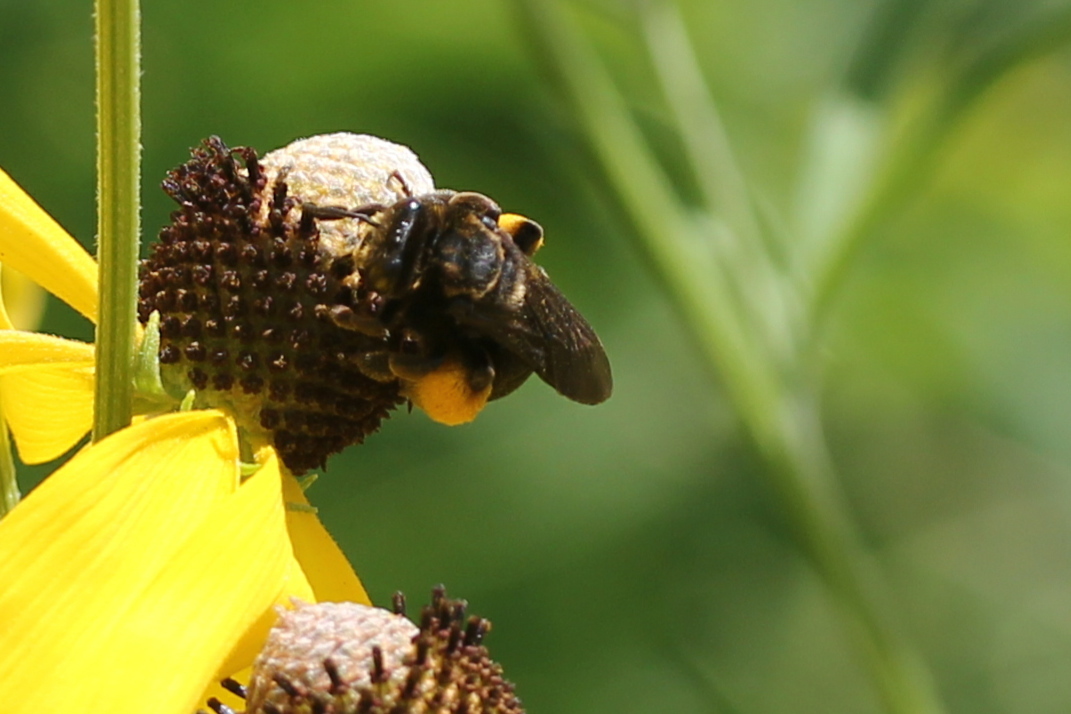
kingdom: Animalia
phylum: Arthropoda
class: Insecta
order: Hymenoptera
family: Apidae
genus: Svastra
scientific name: Svastra obliqua
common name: Oblique longhorn
